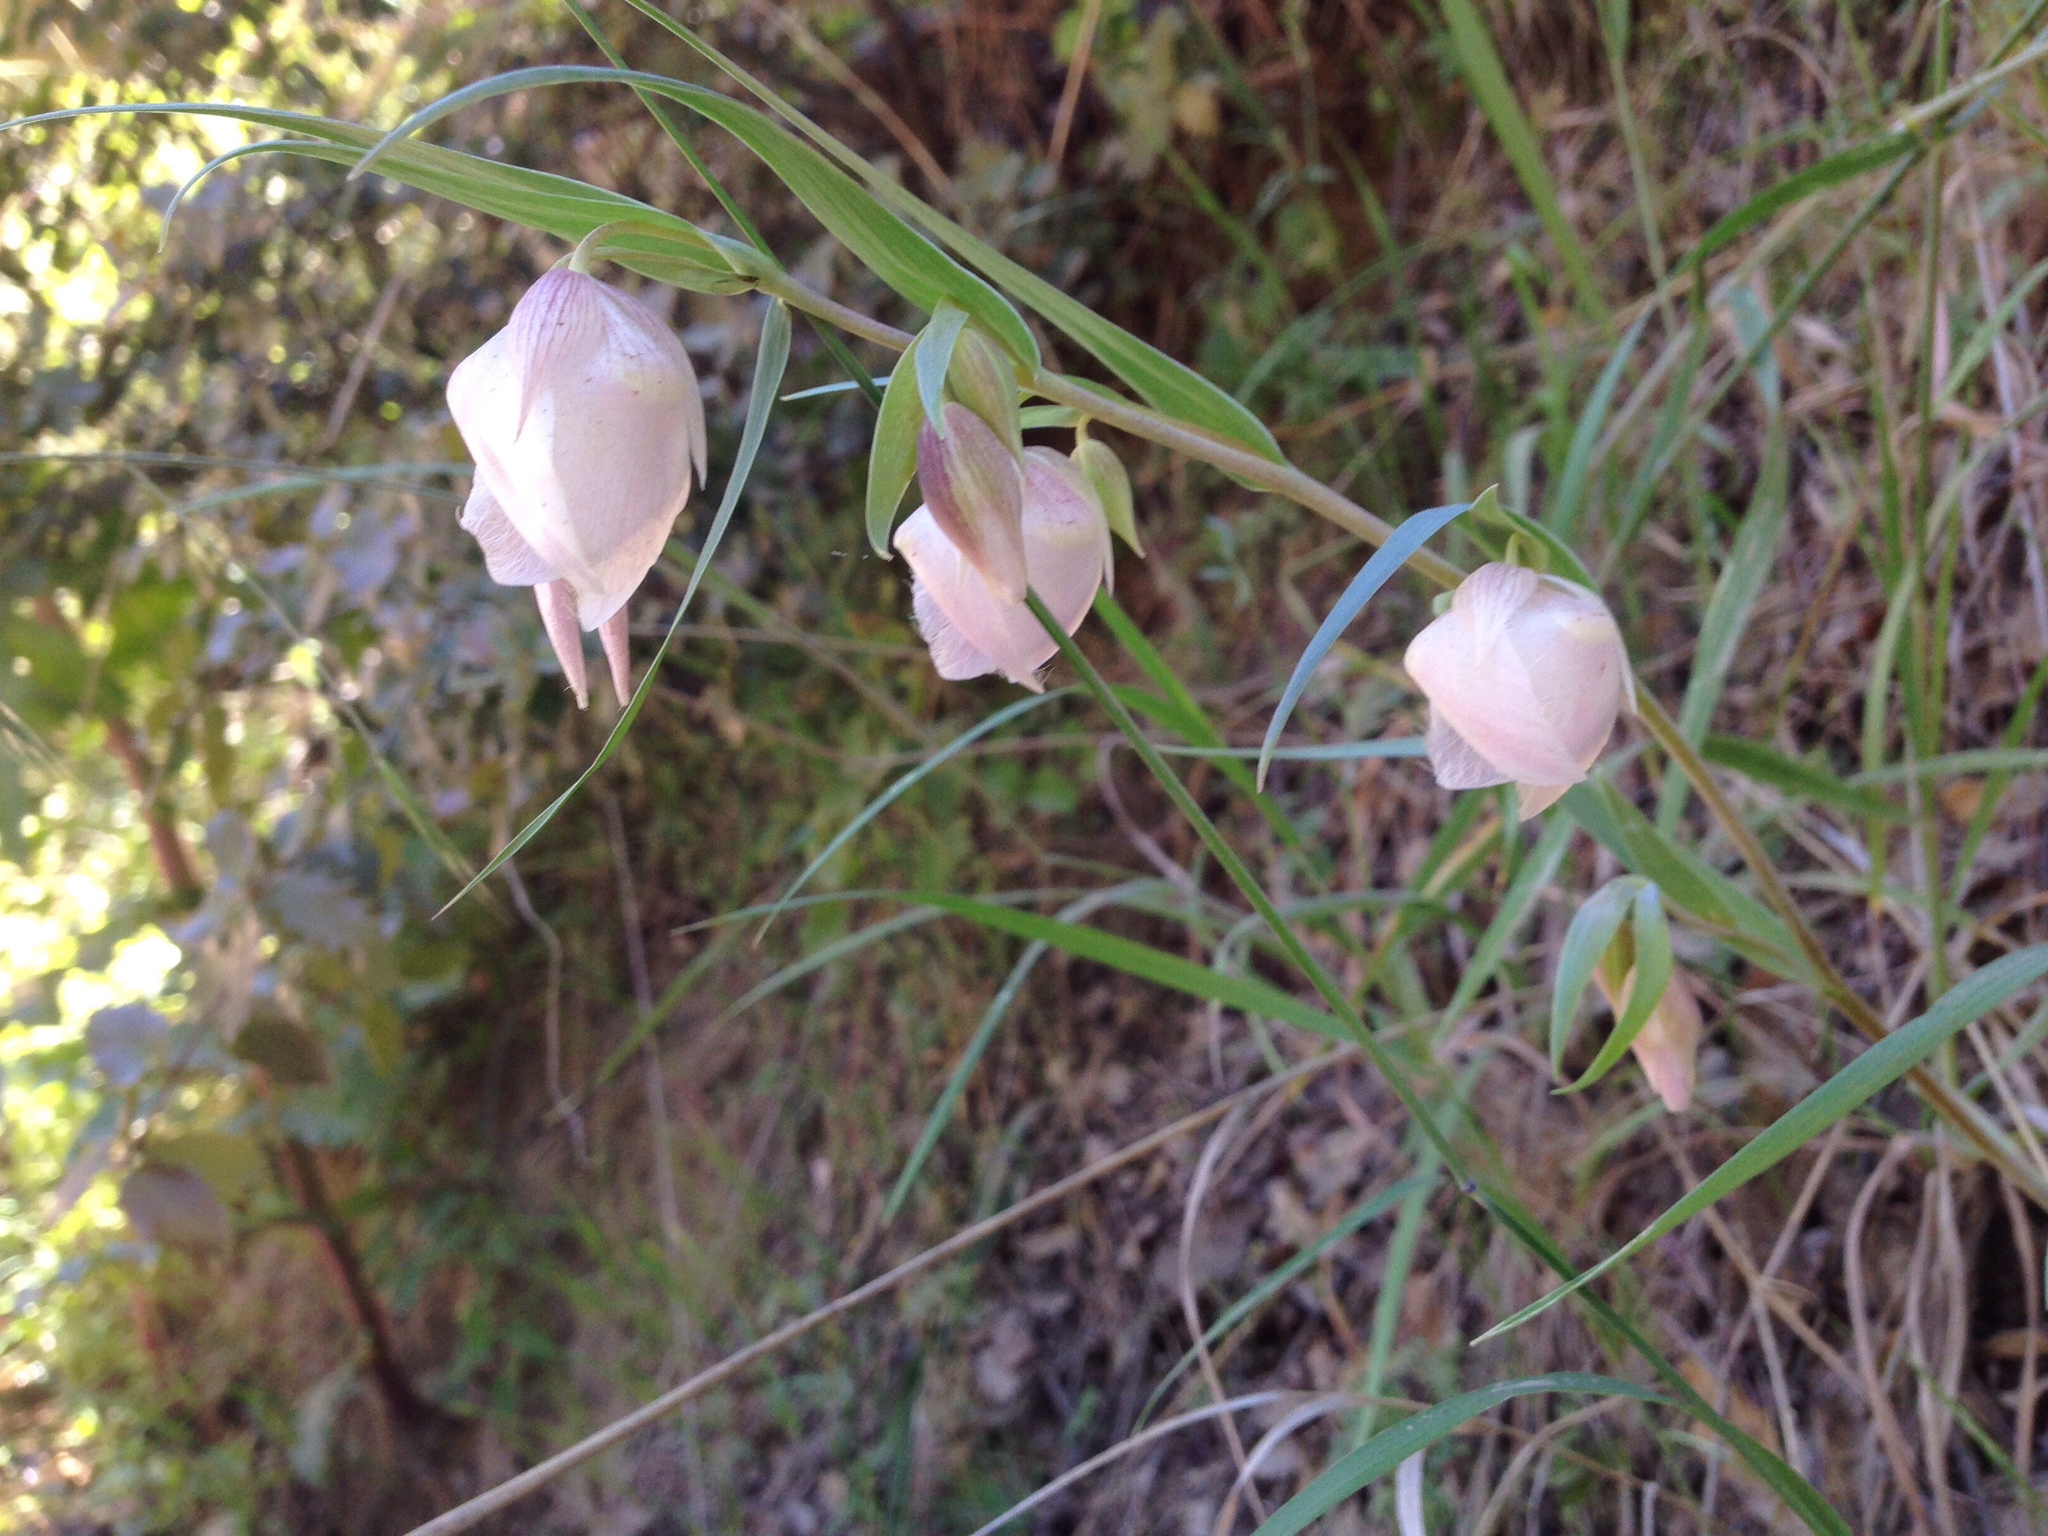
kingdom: Plantae
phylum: Tracheophyta
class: Liliopsida
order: Liliales
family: Liliaceae
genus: Calochortus
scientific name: Calochortus albus
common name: Fairy-lantern
